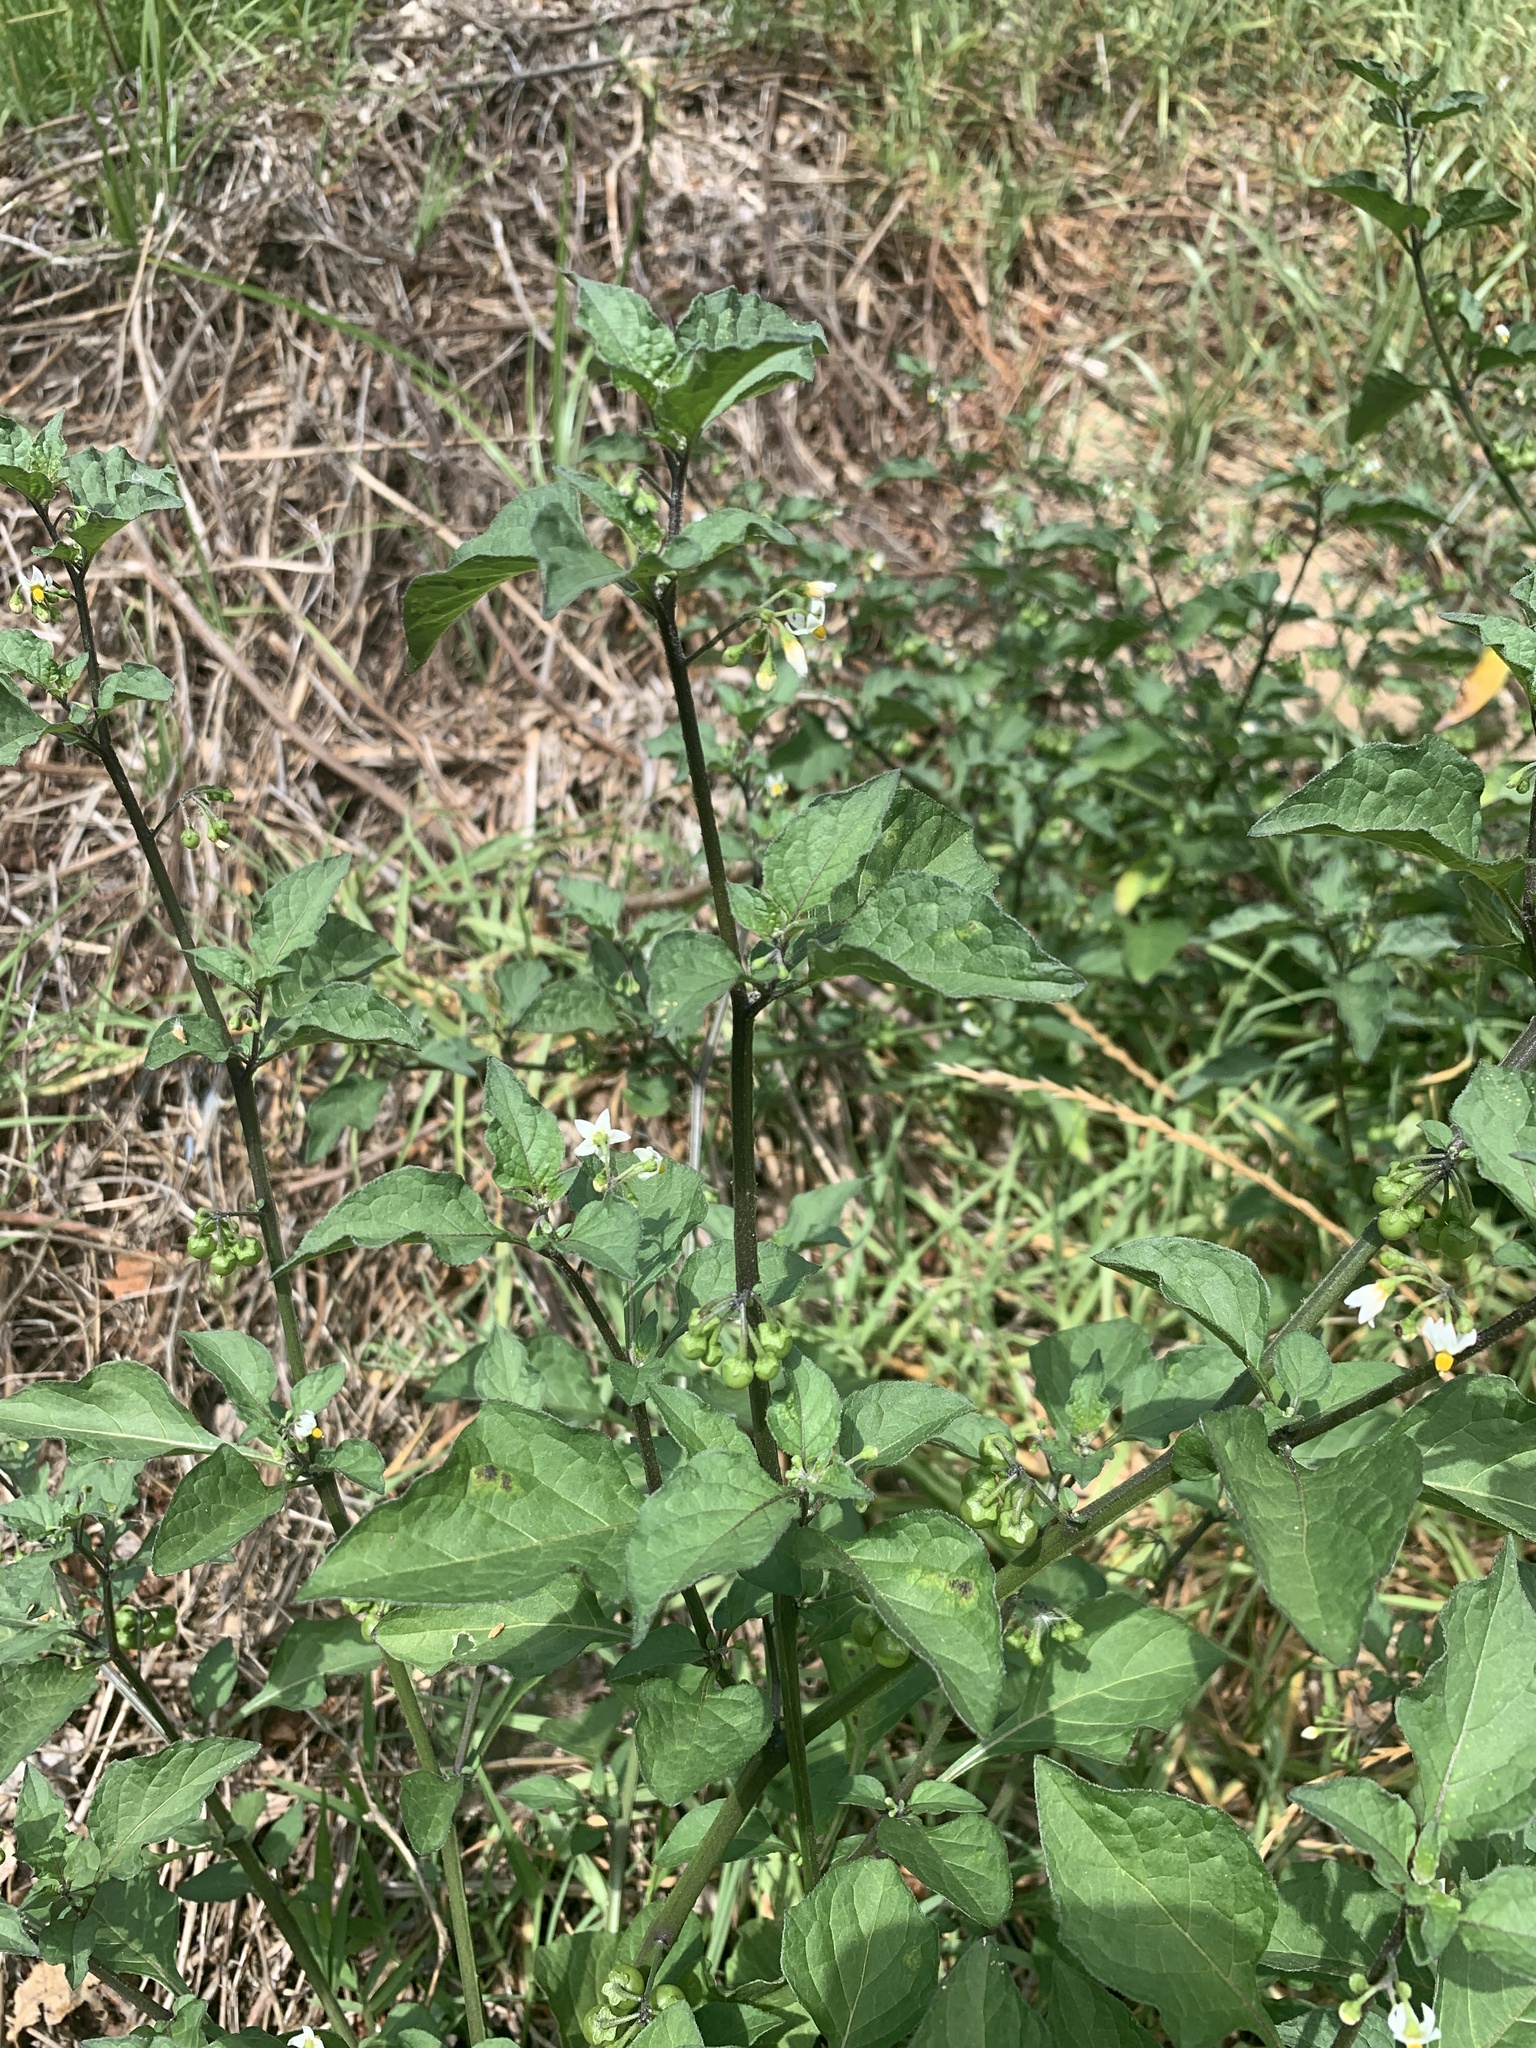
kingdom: Plantae
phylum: Tracheophyta
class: Magnoliopsida
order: Solanales
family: Solanaceae
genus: Solanum
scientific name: Solanum nigrum
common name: Black nightshade
